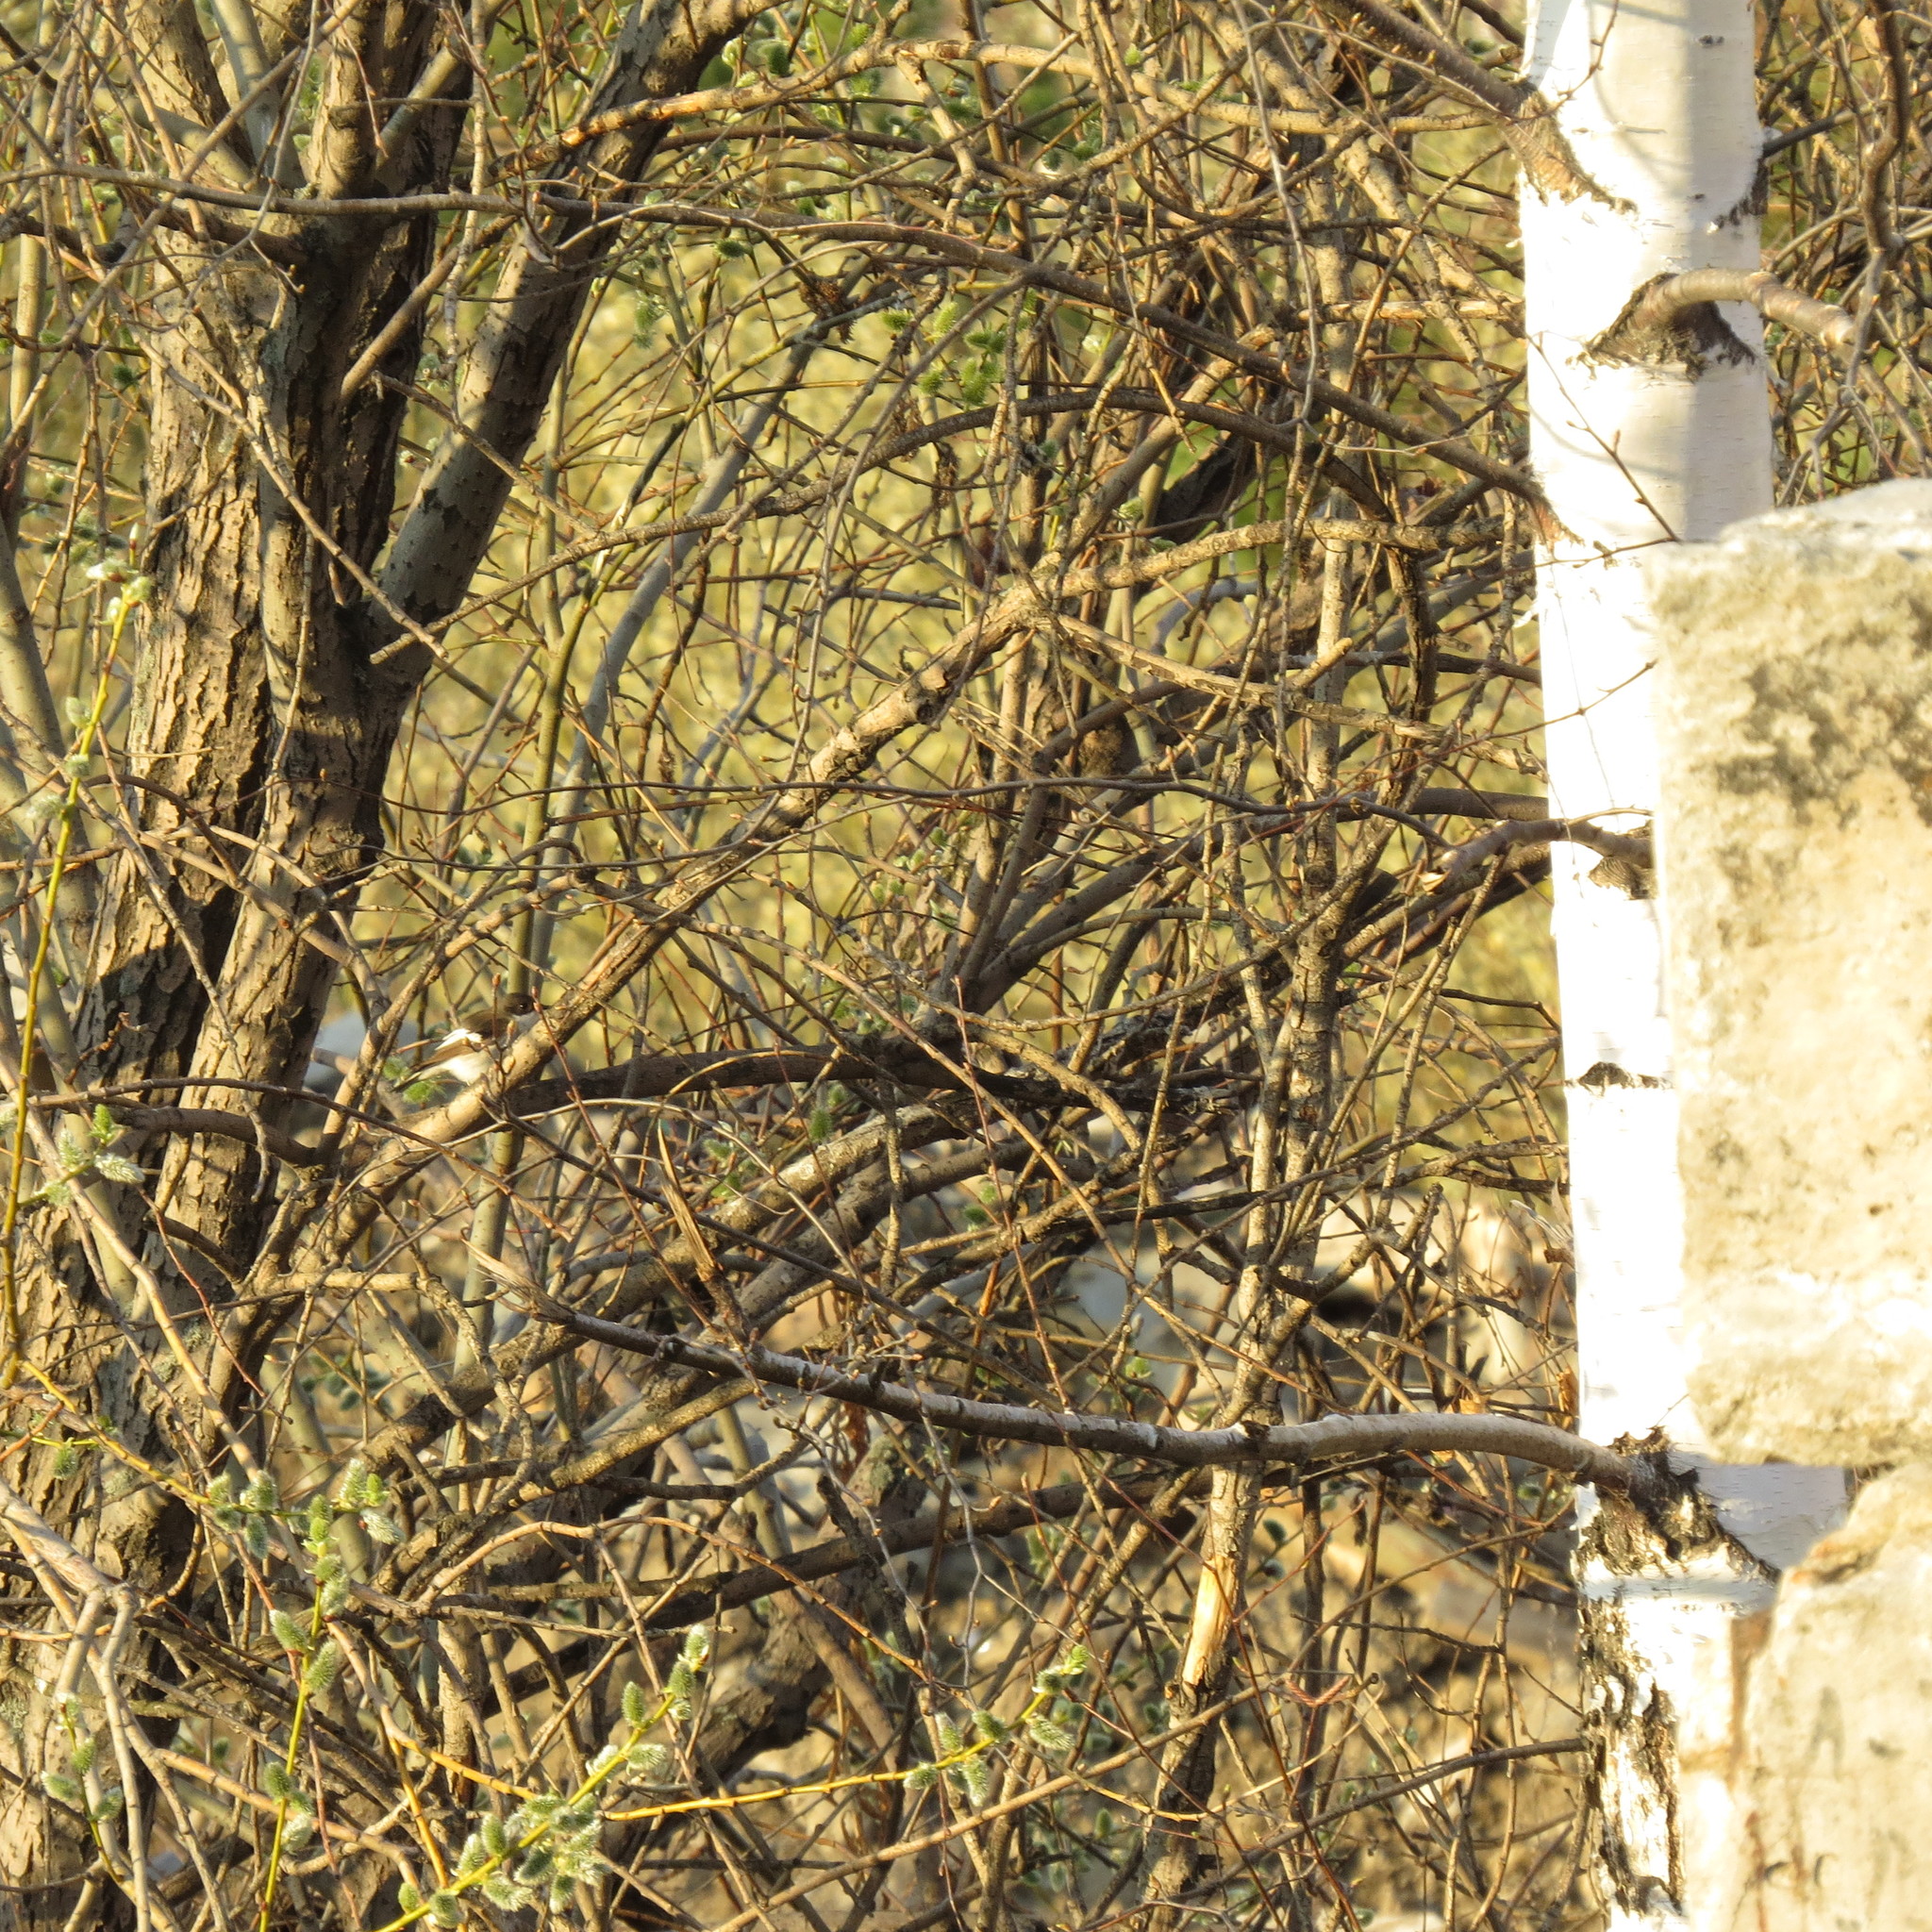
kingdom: Animalia
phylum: Chordata
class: Aves
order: Passeriformes
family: Muscicapidae
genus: Ficedula
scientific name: Ficedula hypoleuca
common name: European pied flycatcher
